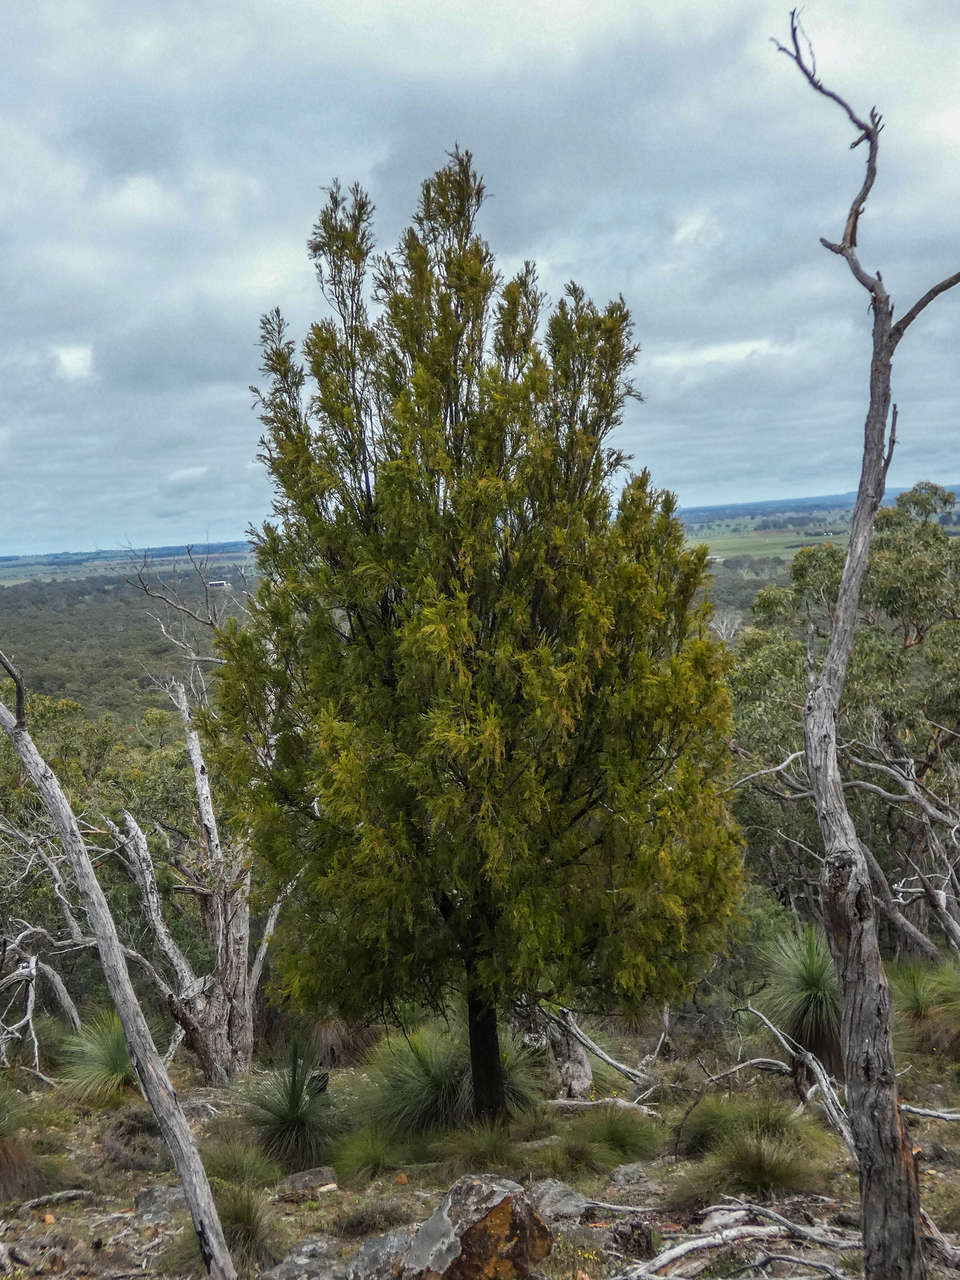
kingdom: Plantae
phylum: Tracheophyta
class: Magnoliopsida
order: Santalales
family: Santalaceae
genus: Exocarpos
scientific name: Exocarpos cupressiformis
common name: Cherry ballart
